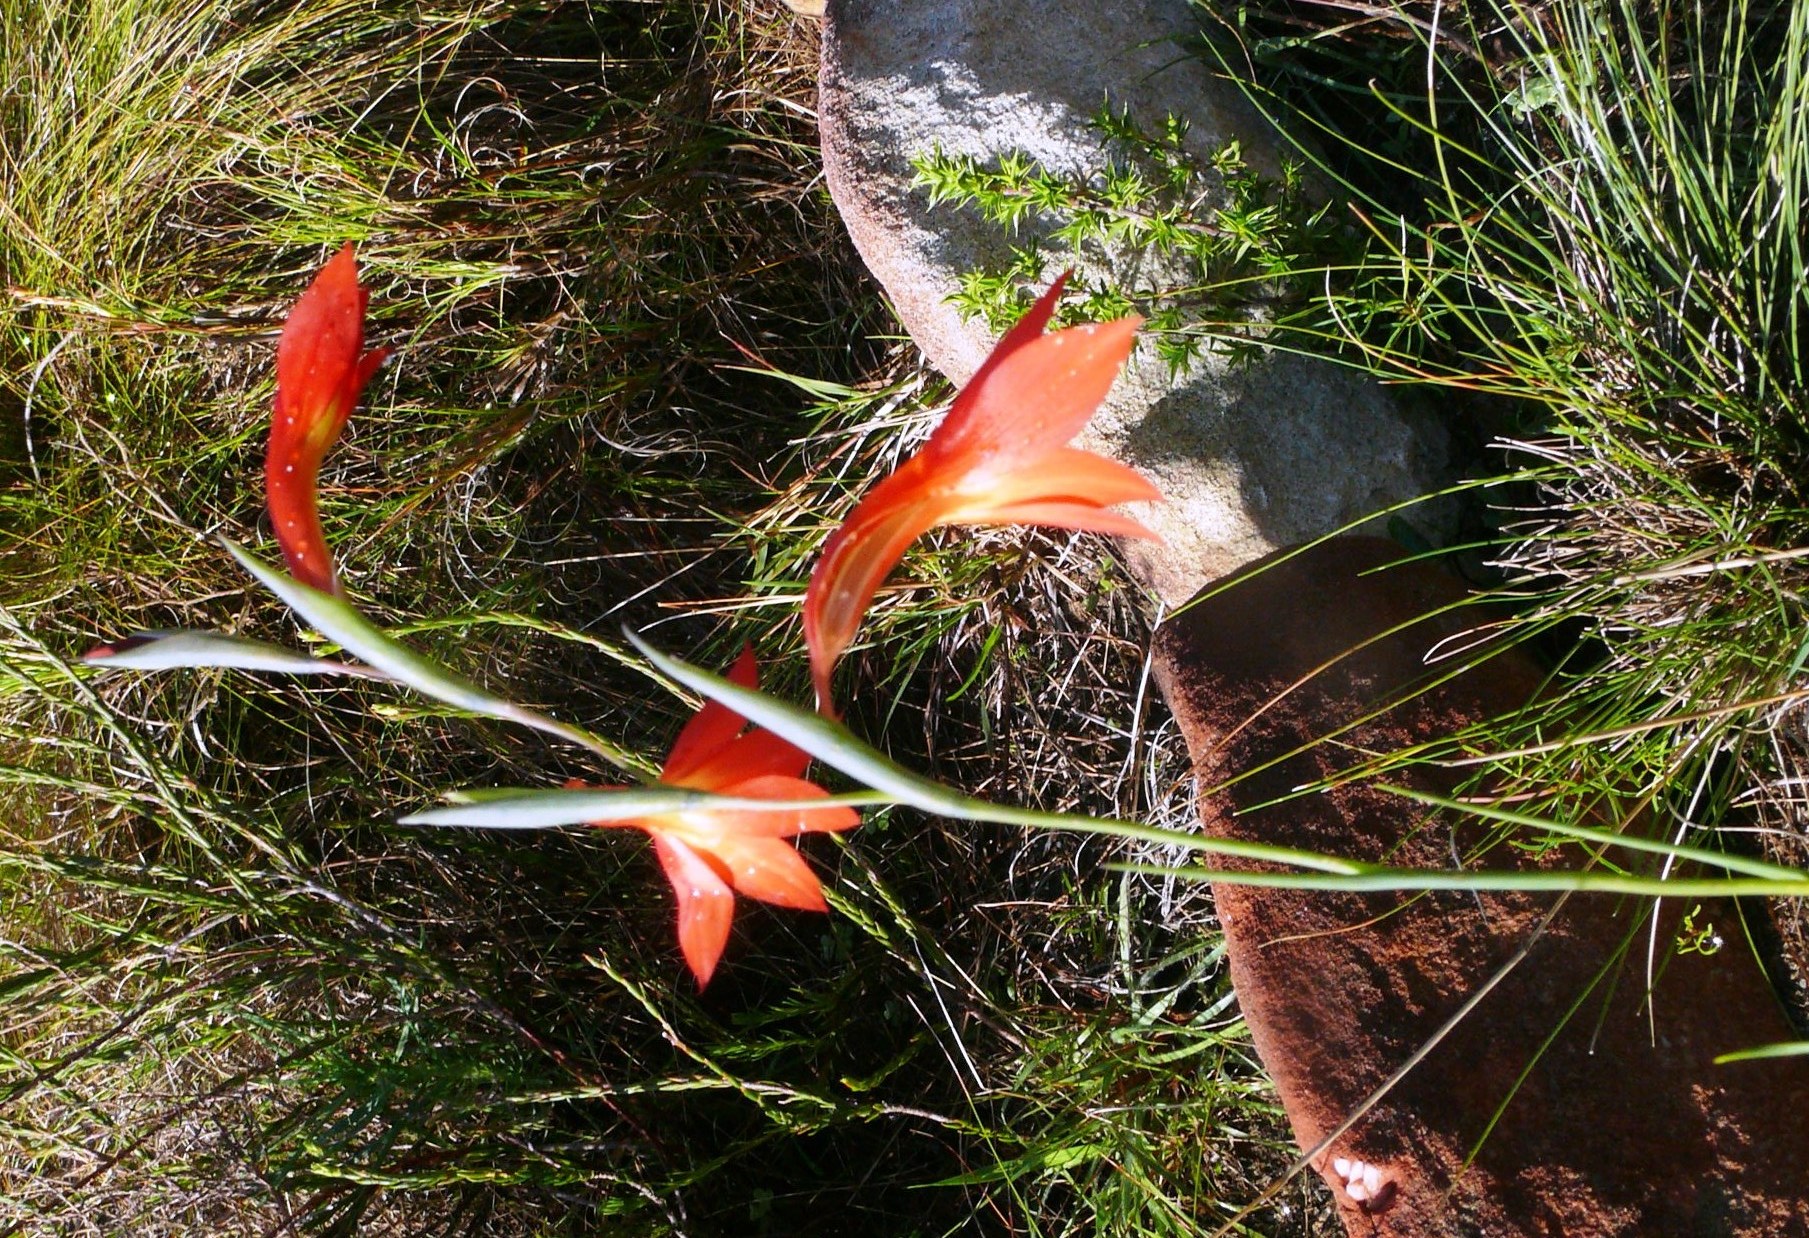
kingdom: Plantae
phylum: Tracheophyta
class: Liliopsida
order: Asparagales
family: Iridaceae
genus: Gladiolus
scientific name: Gladiolus priorii
